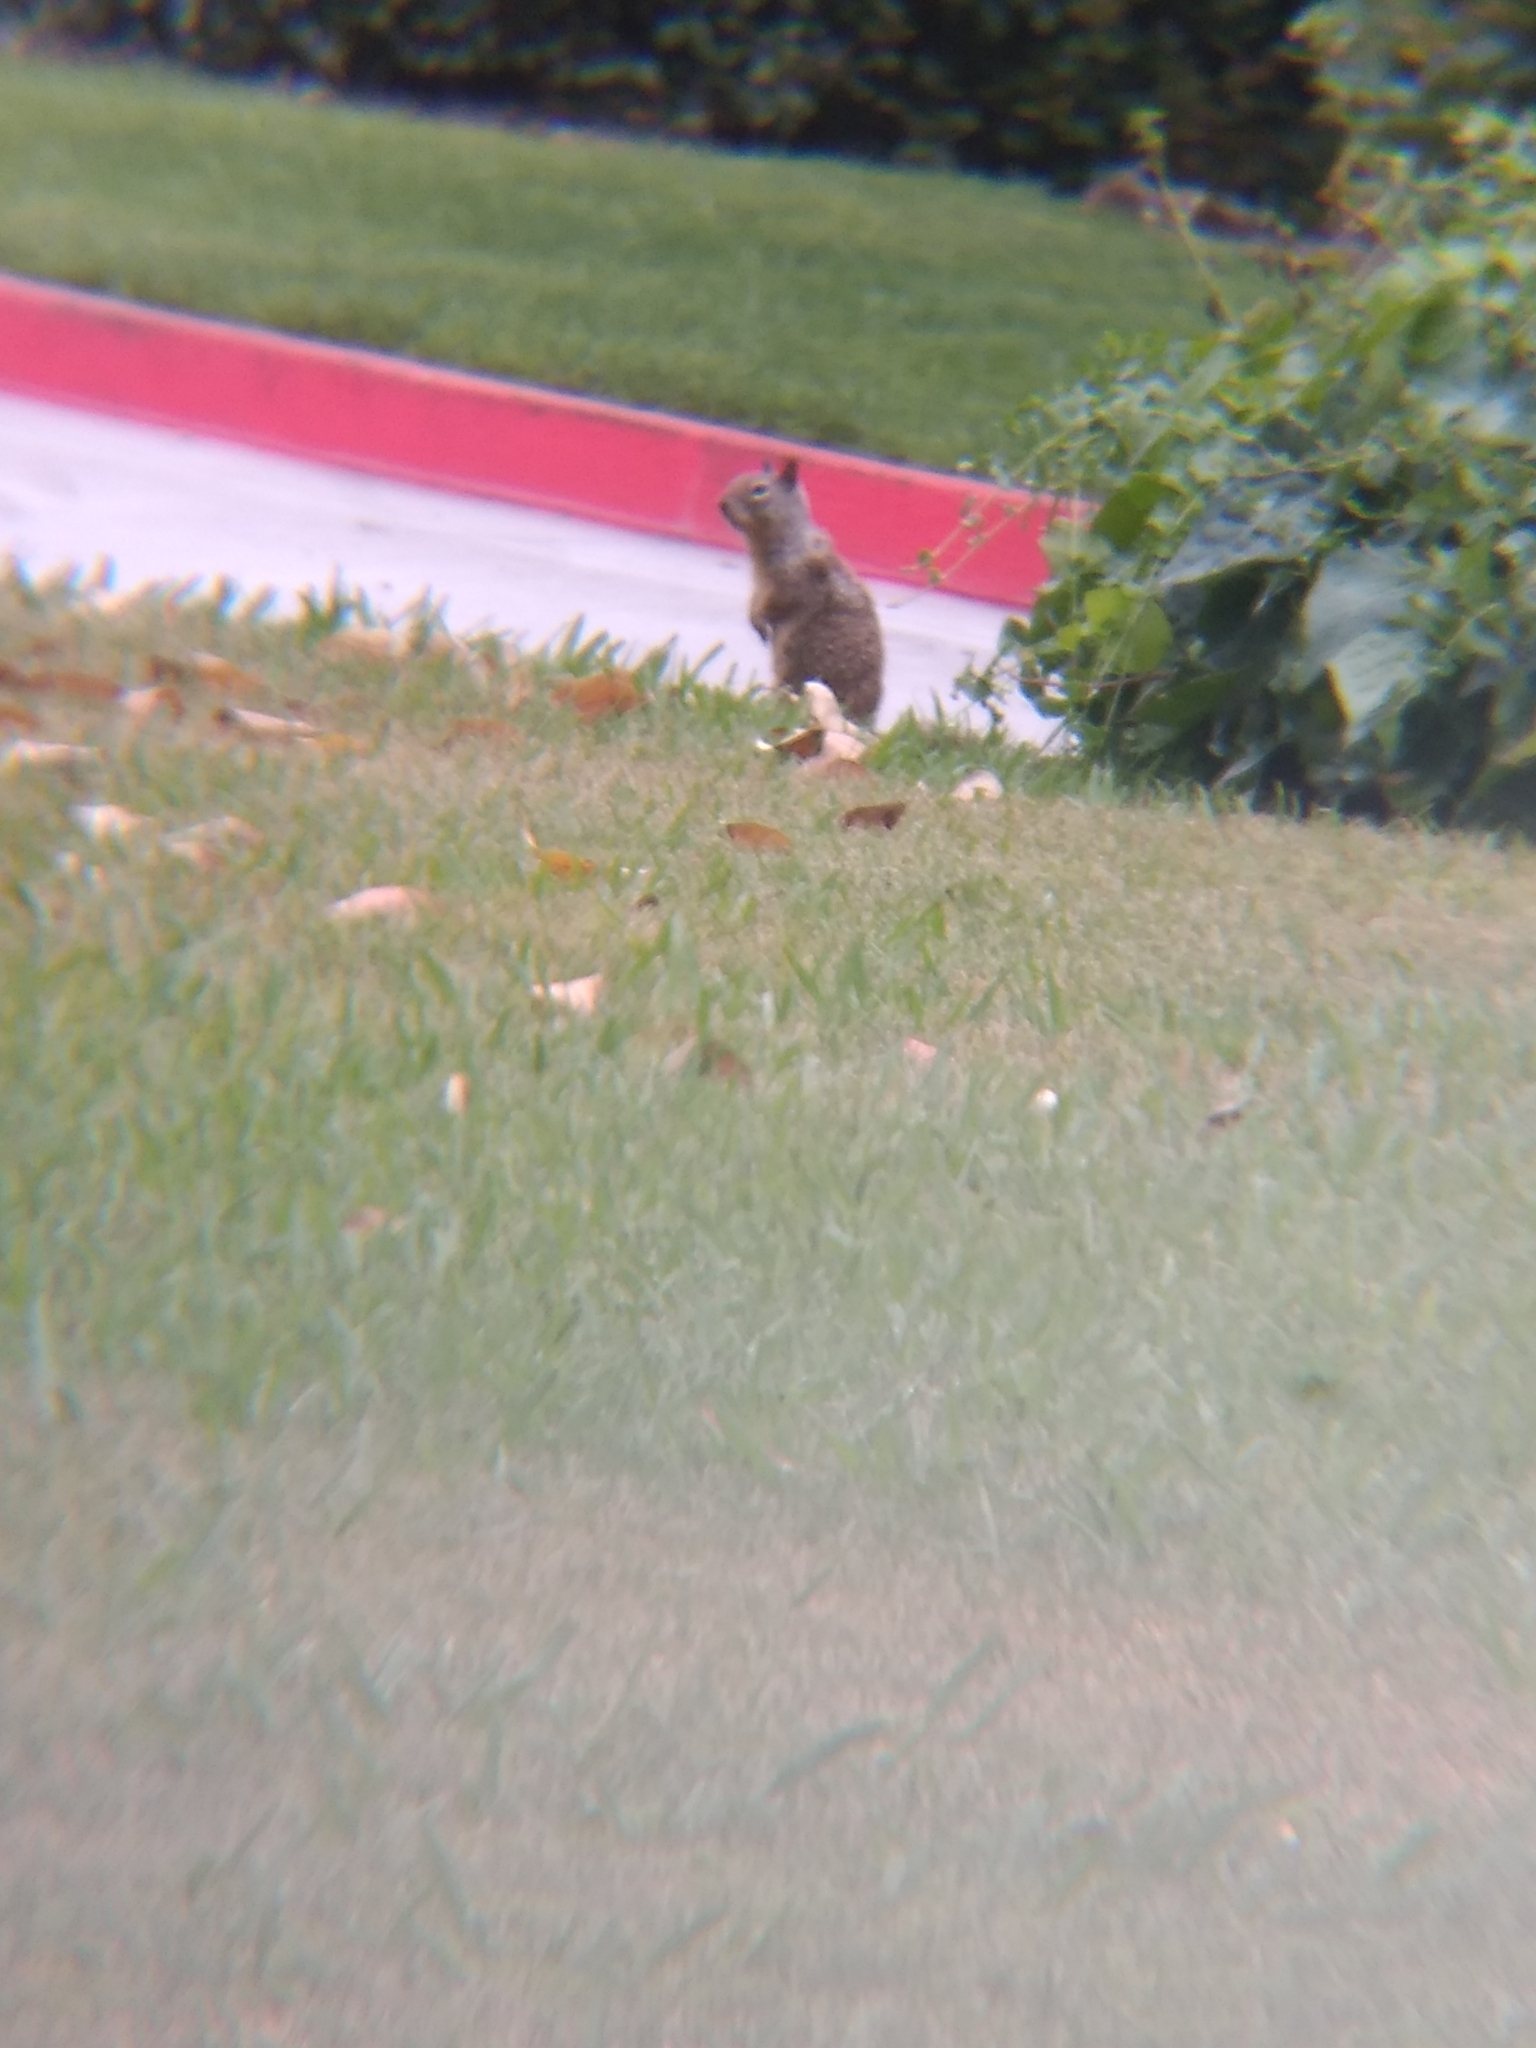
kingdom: Animalia
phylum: Chordata
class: Mammalia
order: Rodentia
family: Sciuridae
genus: Otospermophilus
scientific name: Otospermophilus beecheyi
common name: California ground squirrel
